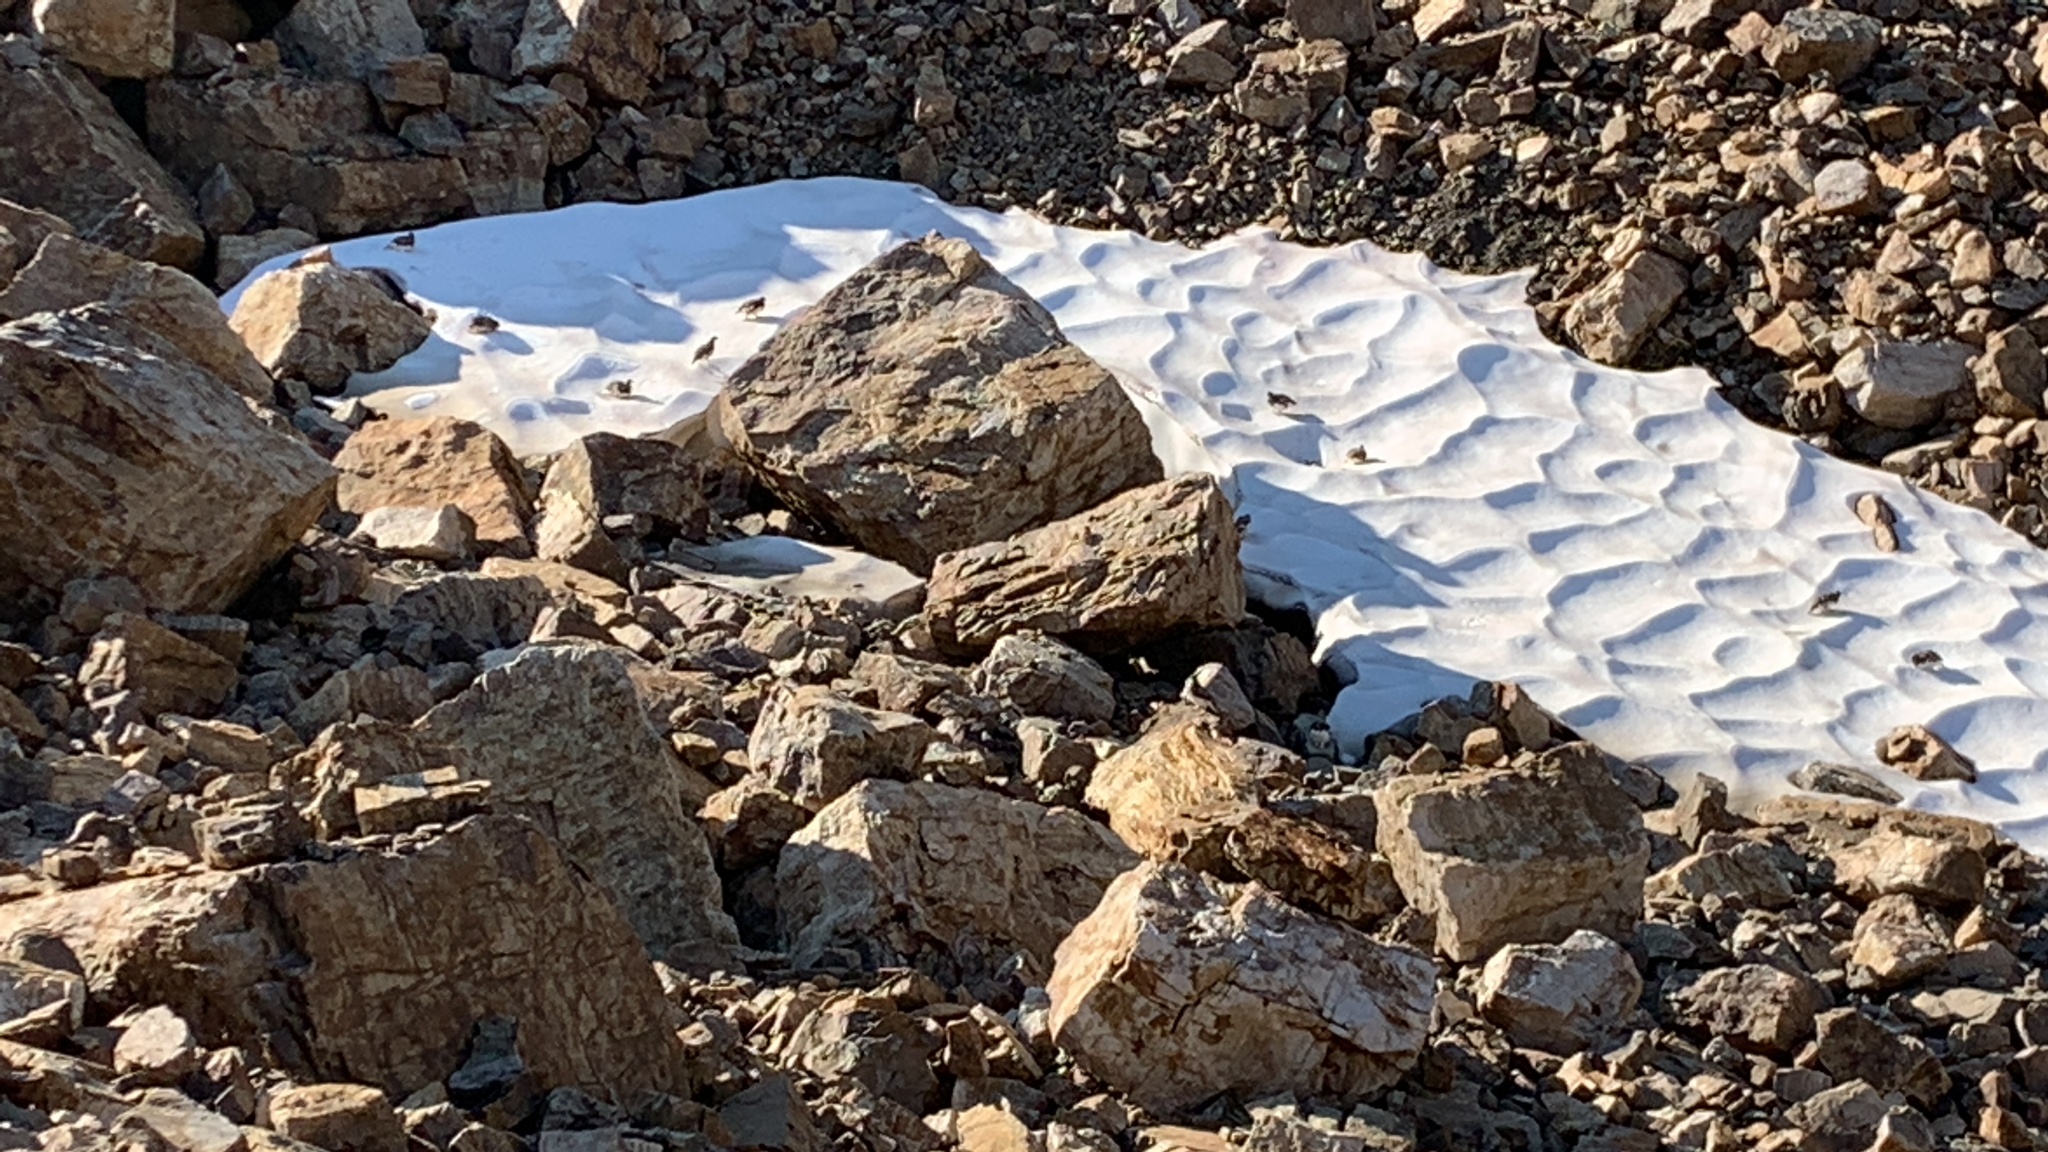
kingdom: Animalia
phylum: Chordata
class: Aves
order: Galliformes
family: Phasianidae
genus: Lagopus
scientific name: Lagopus leucura
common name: White-tailed ptarmigan
